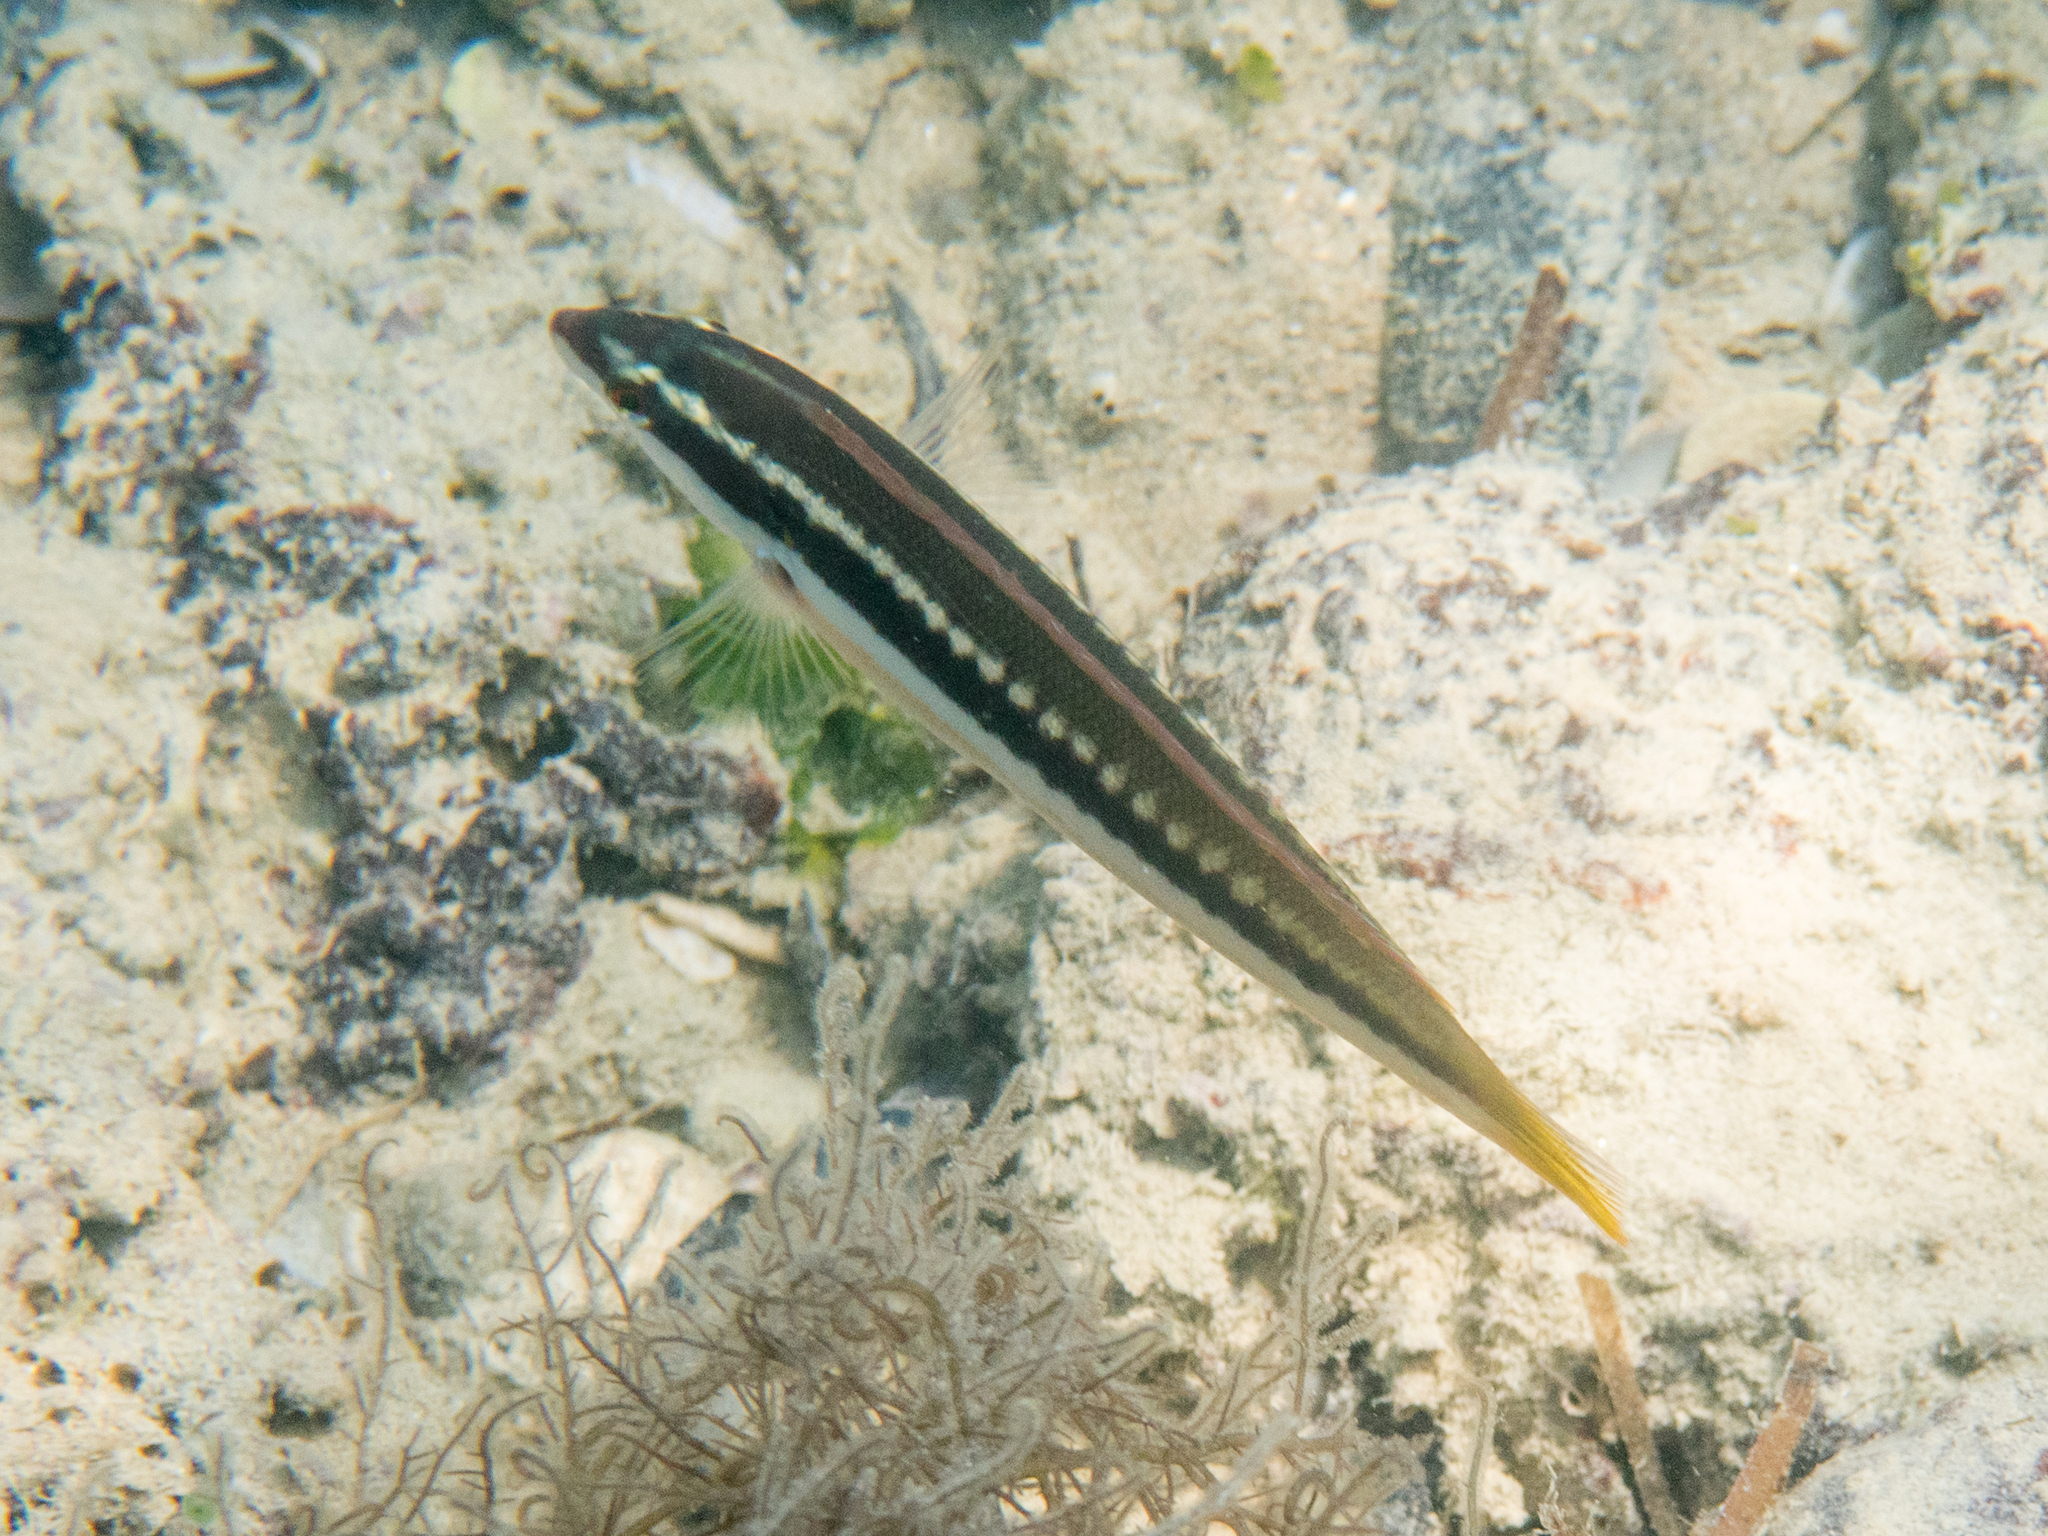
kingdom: Animalia
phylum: Chordata
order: Perciformes
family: Labridae
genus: Coris
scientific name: Coris julis
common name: Rainbow wrasse
